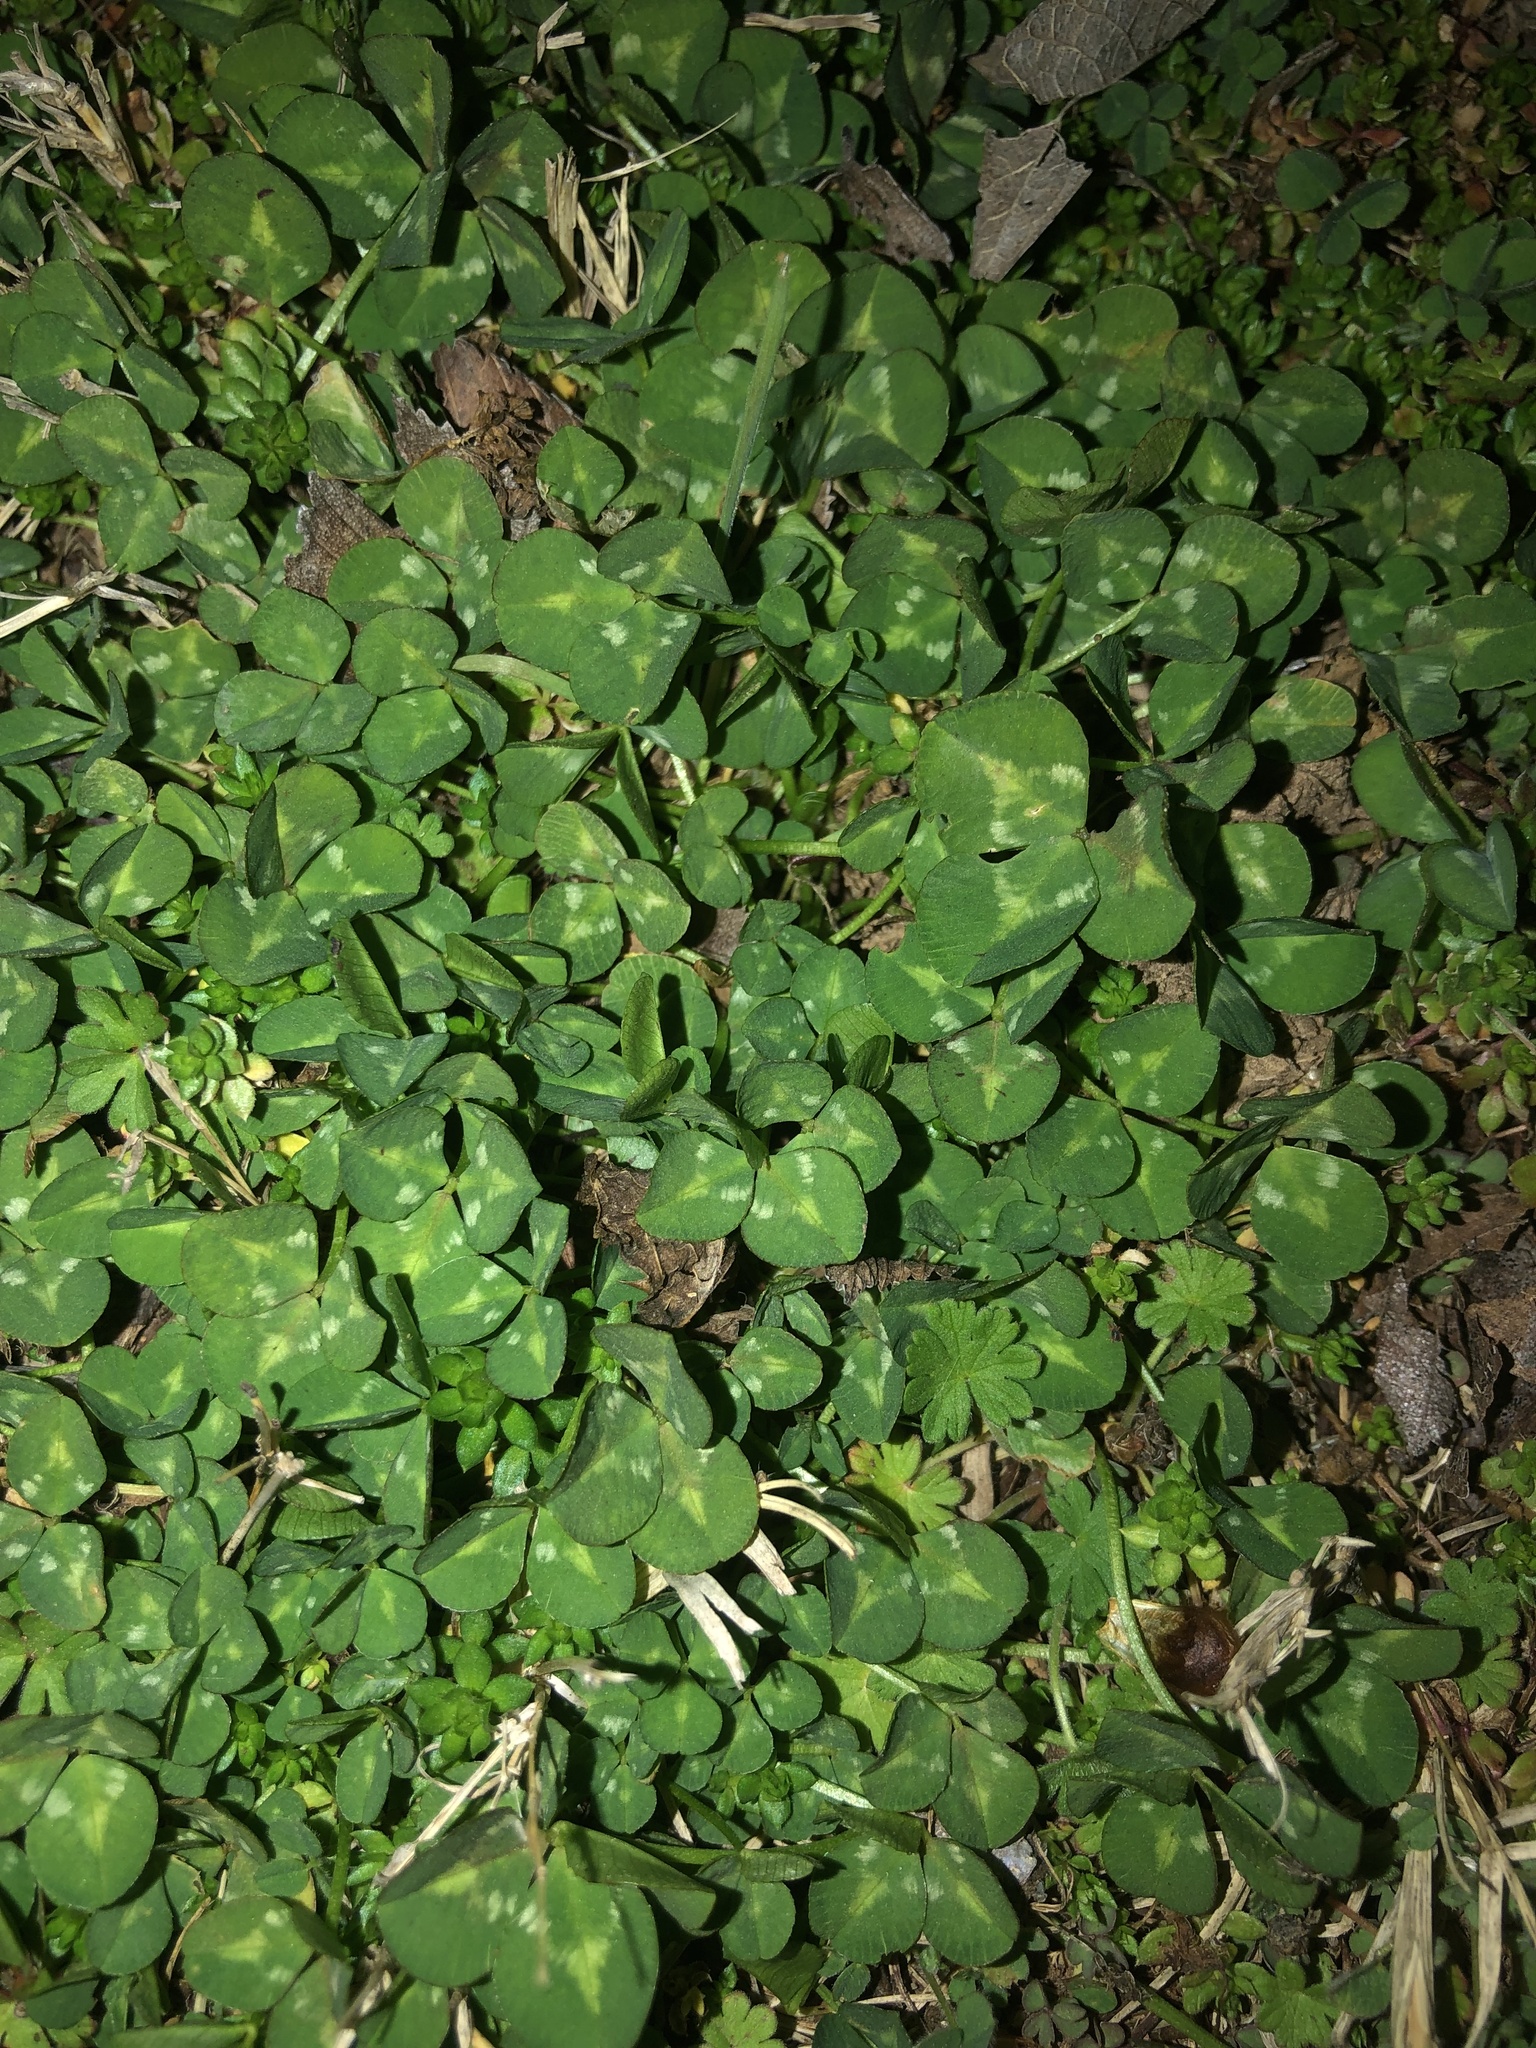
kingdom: Plantae
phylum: Tracheophyta
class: Magnoliopsida
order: Fabales
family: Fabaceae
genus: Trifolium
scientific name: Trifolium repens
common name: White clover
